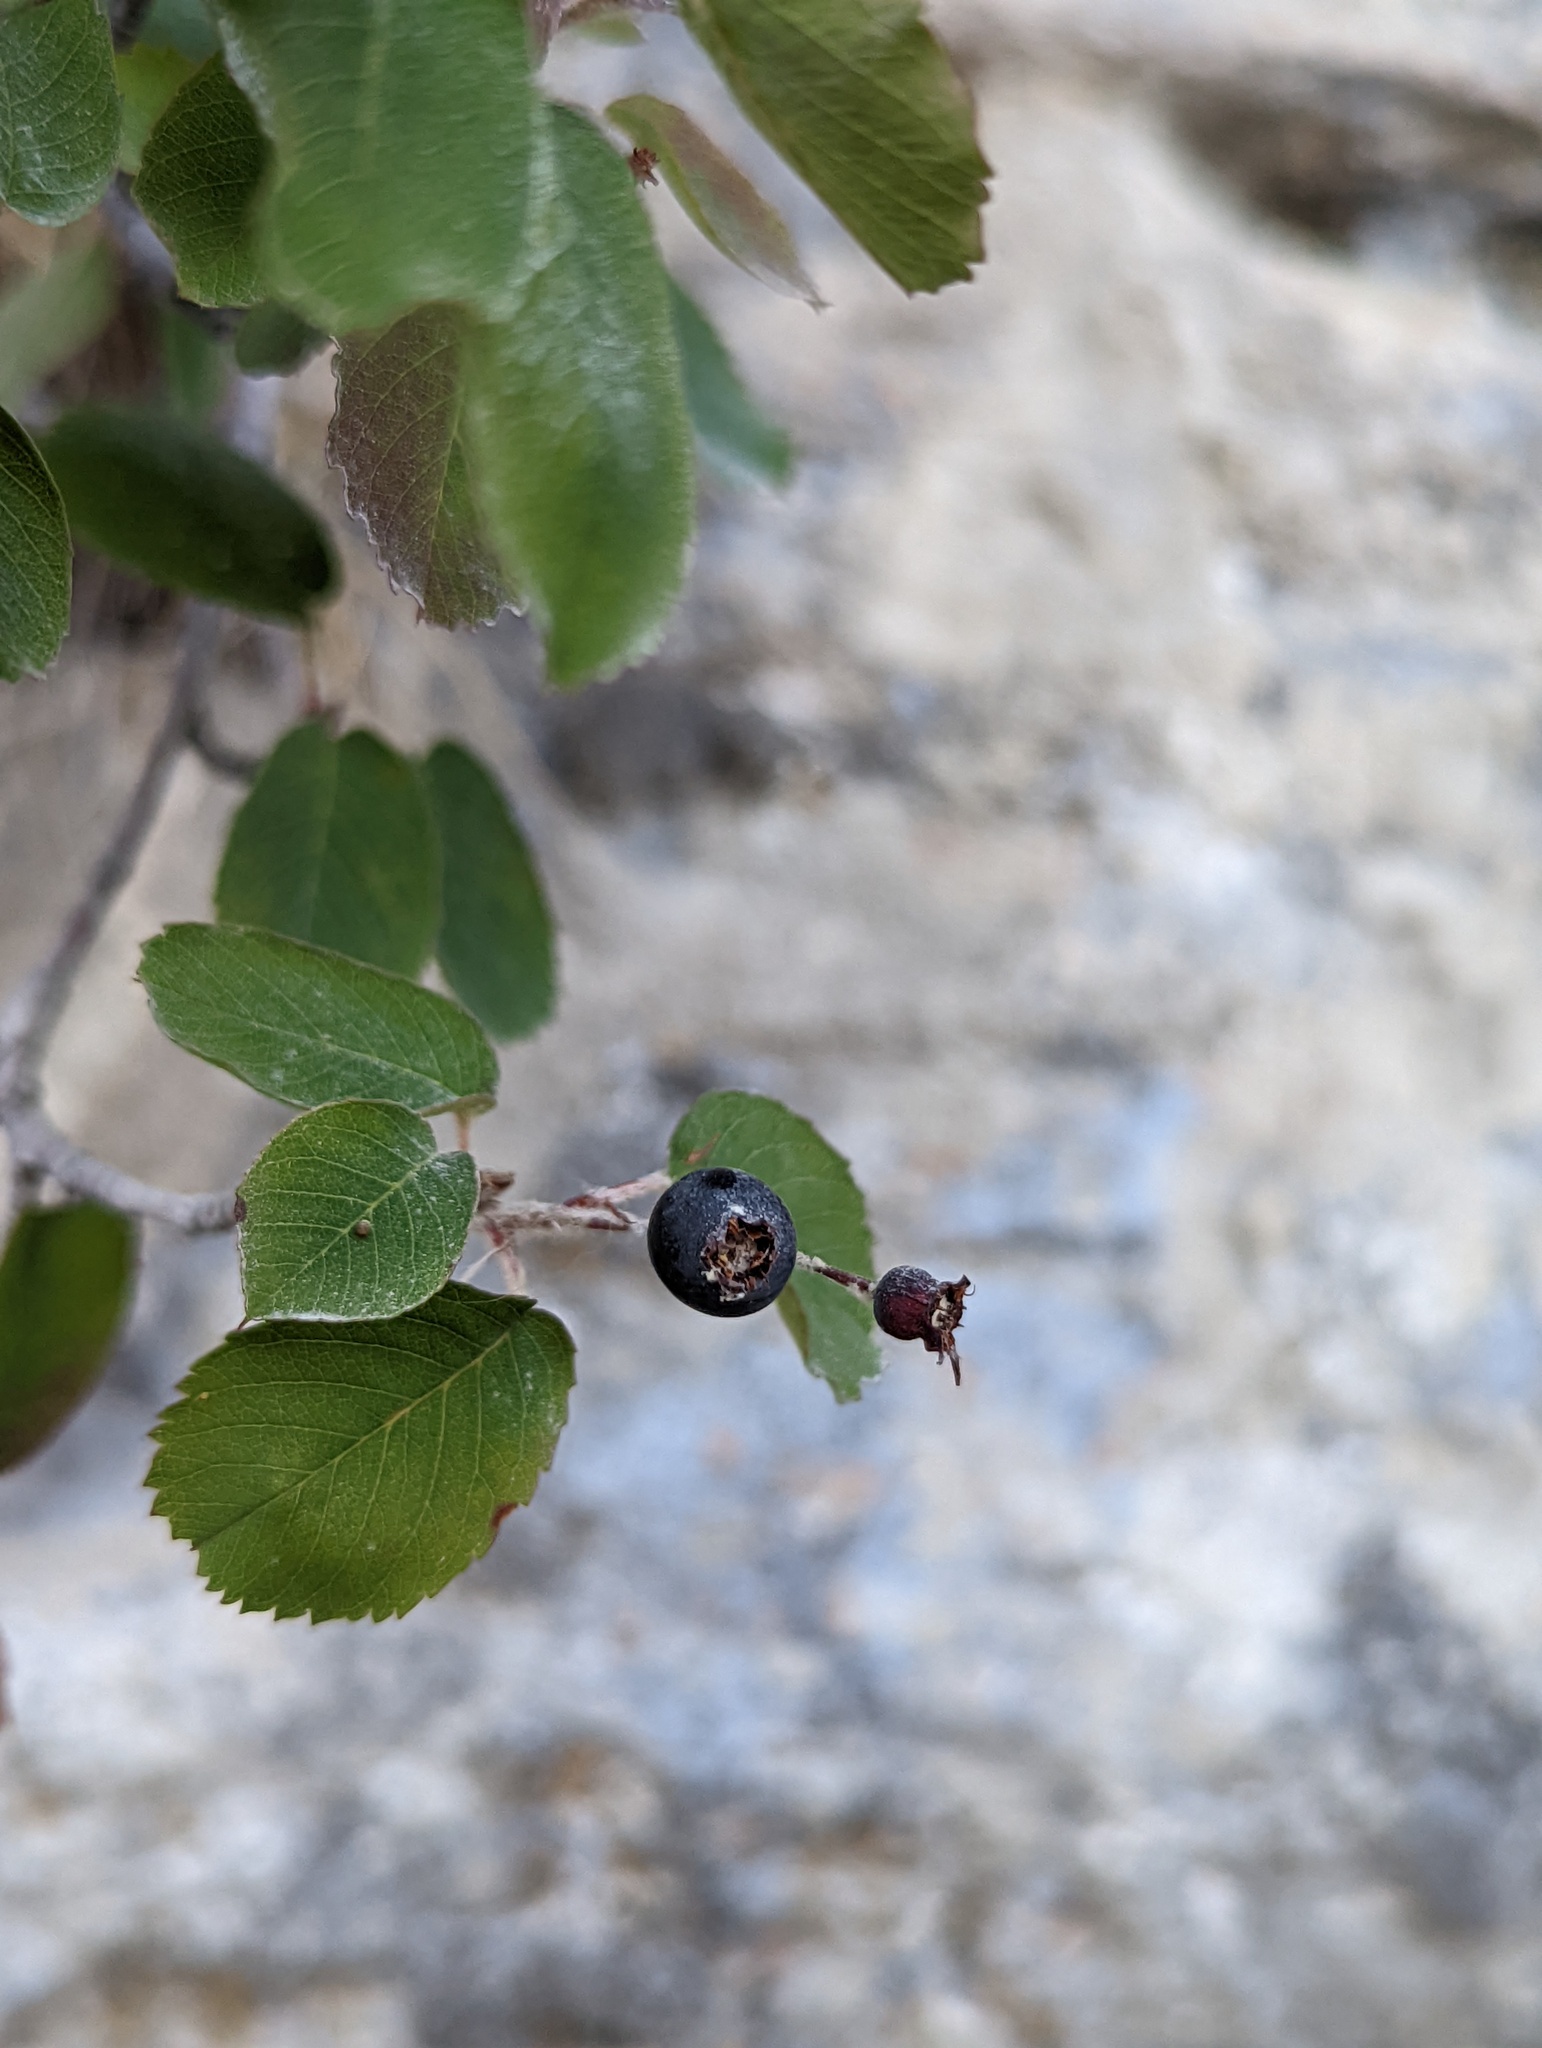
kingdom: Plantae
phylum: Tracheophyta
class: Magnoliopsida
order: Rosales
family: Rosaceae
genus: Amelanchier
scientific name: Amelanchier ovalis
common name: Serviceberry
